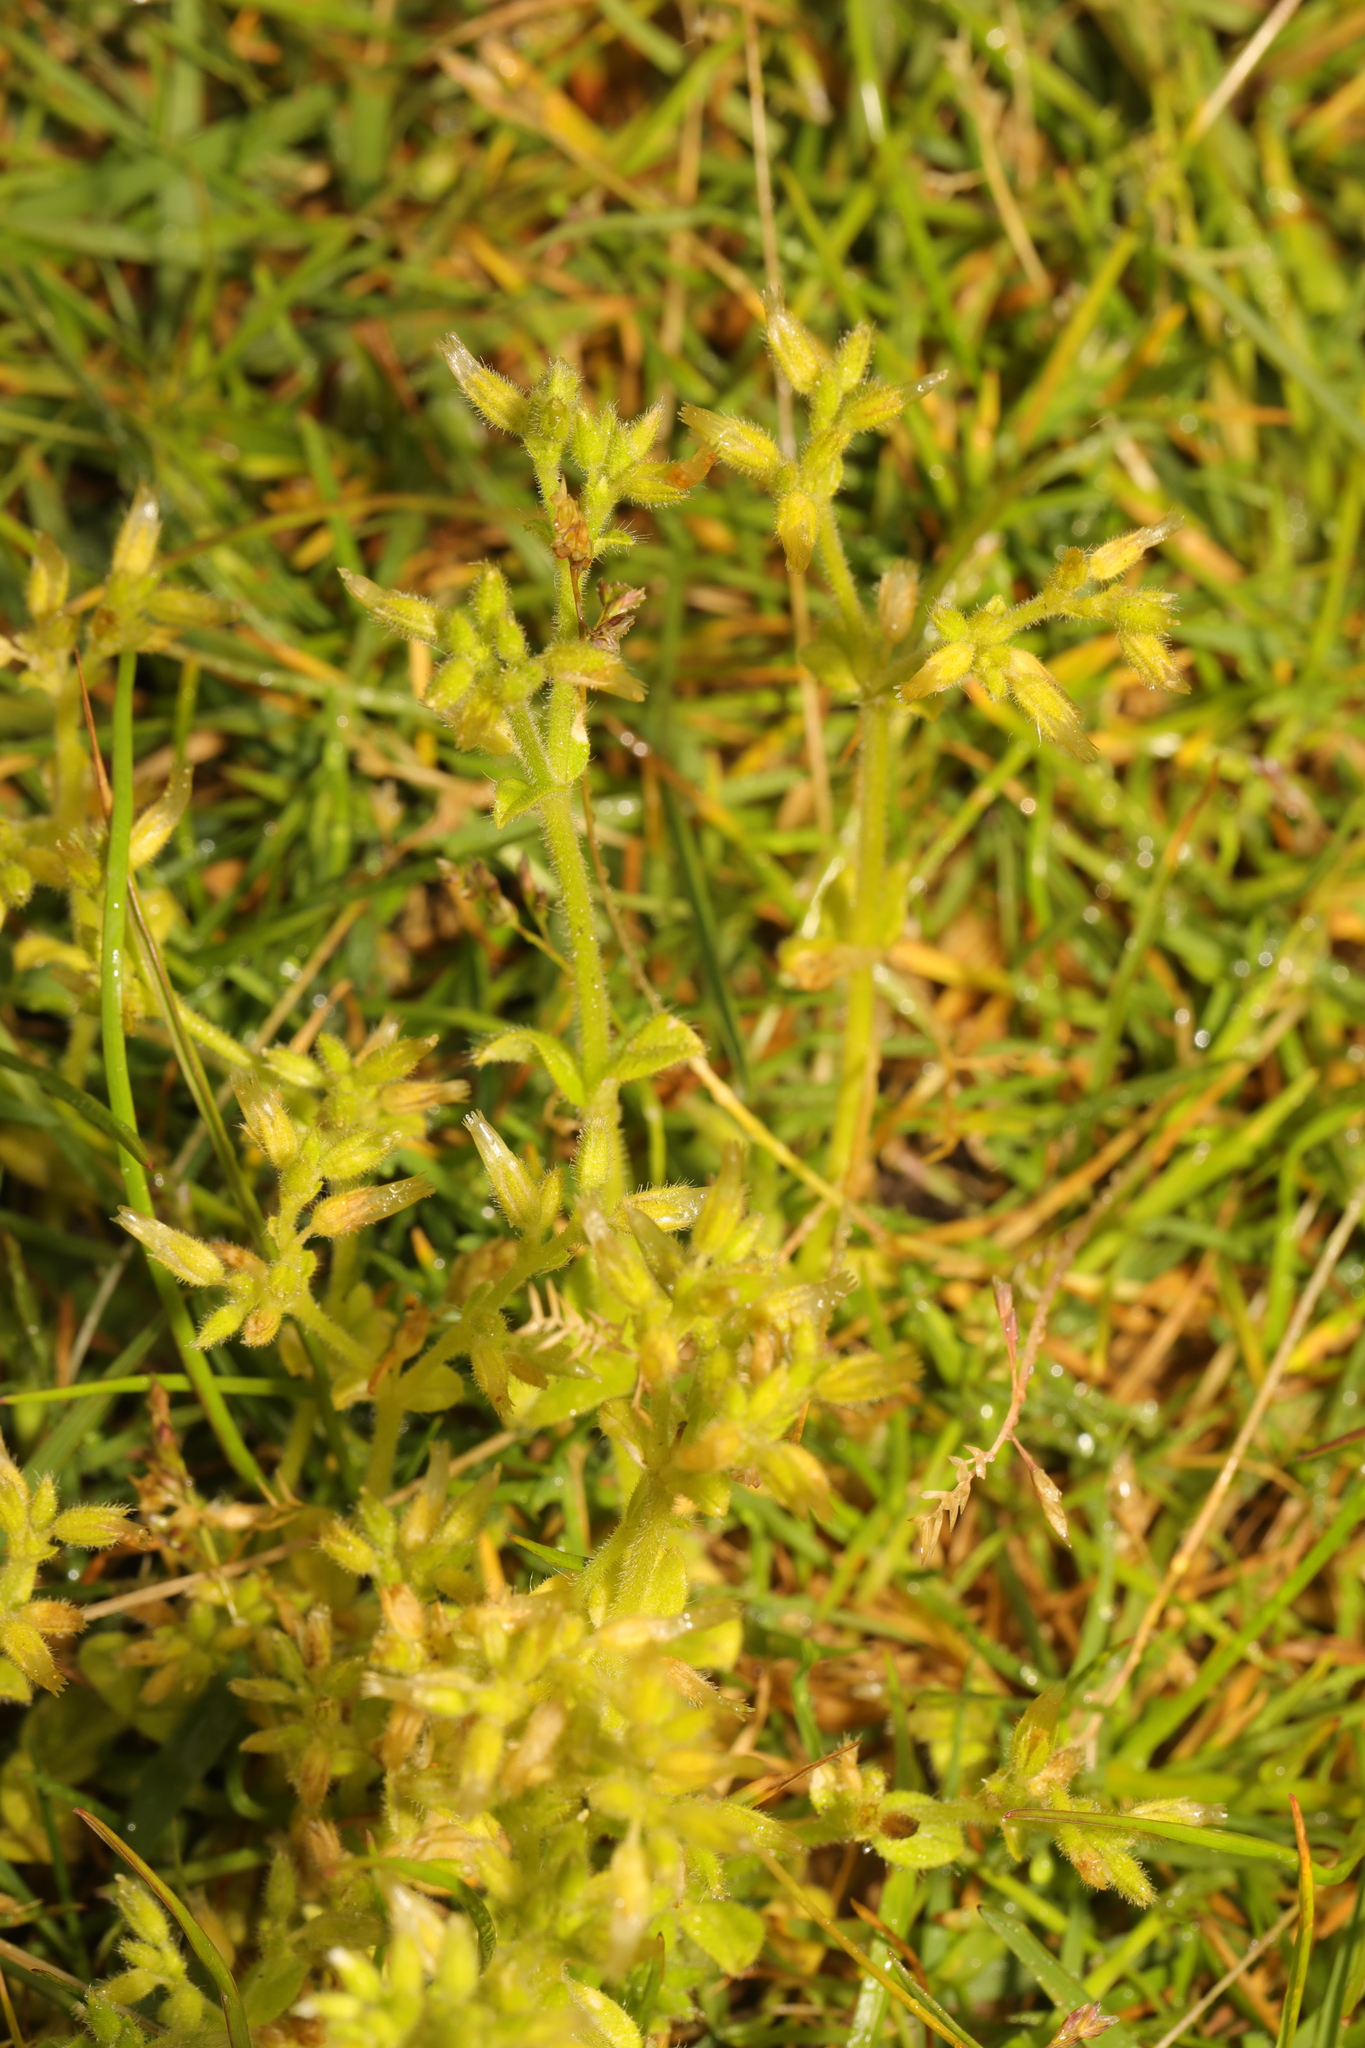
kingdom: Plantae
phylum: Tracheophyta
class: Magnoliopsida
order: Caryophyllales
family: Caryophyllaceae
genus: Cerastium
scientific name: Cerastium glomeratum
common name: Sticky chickweed
